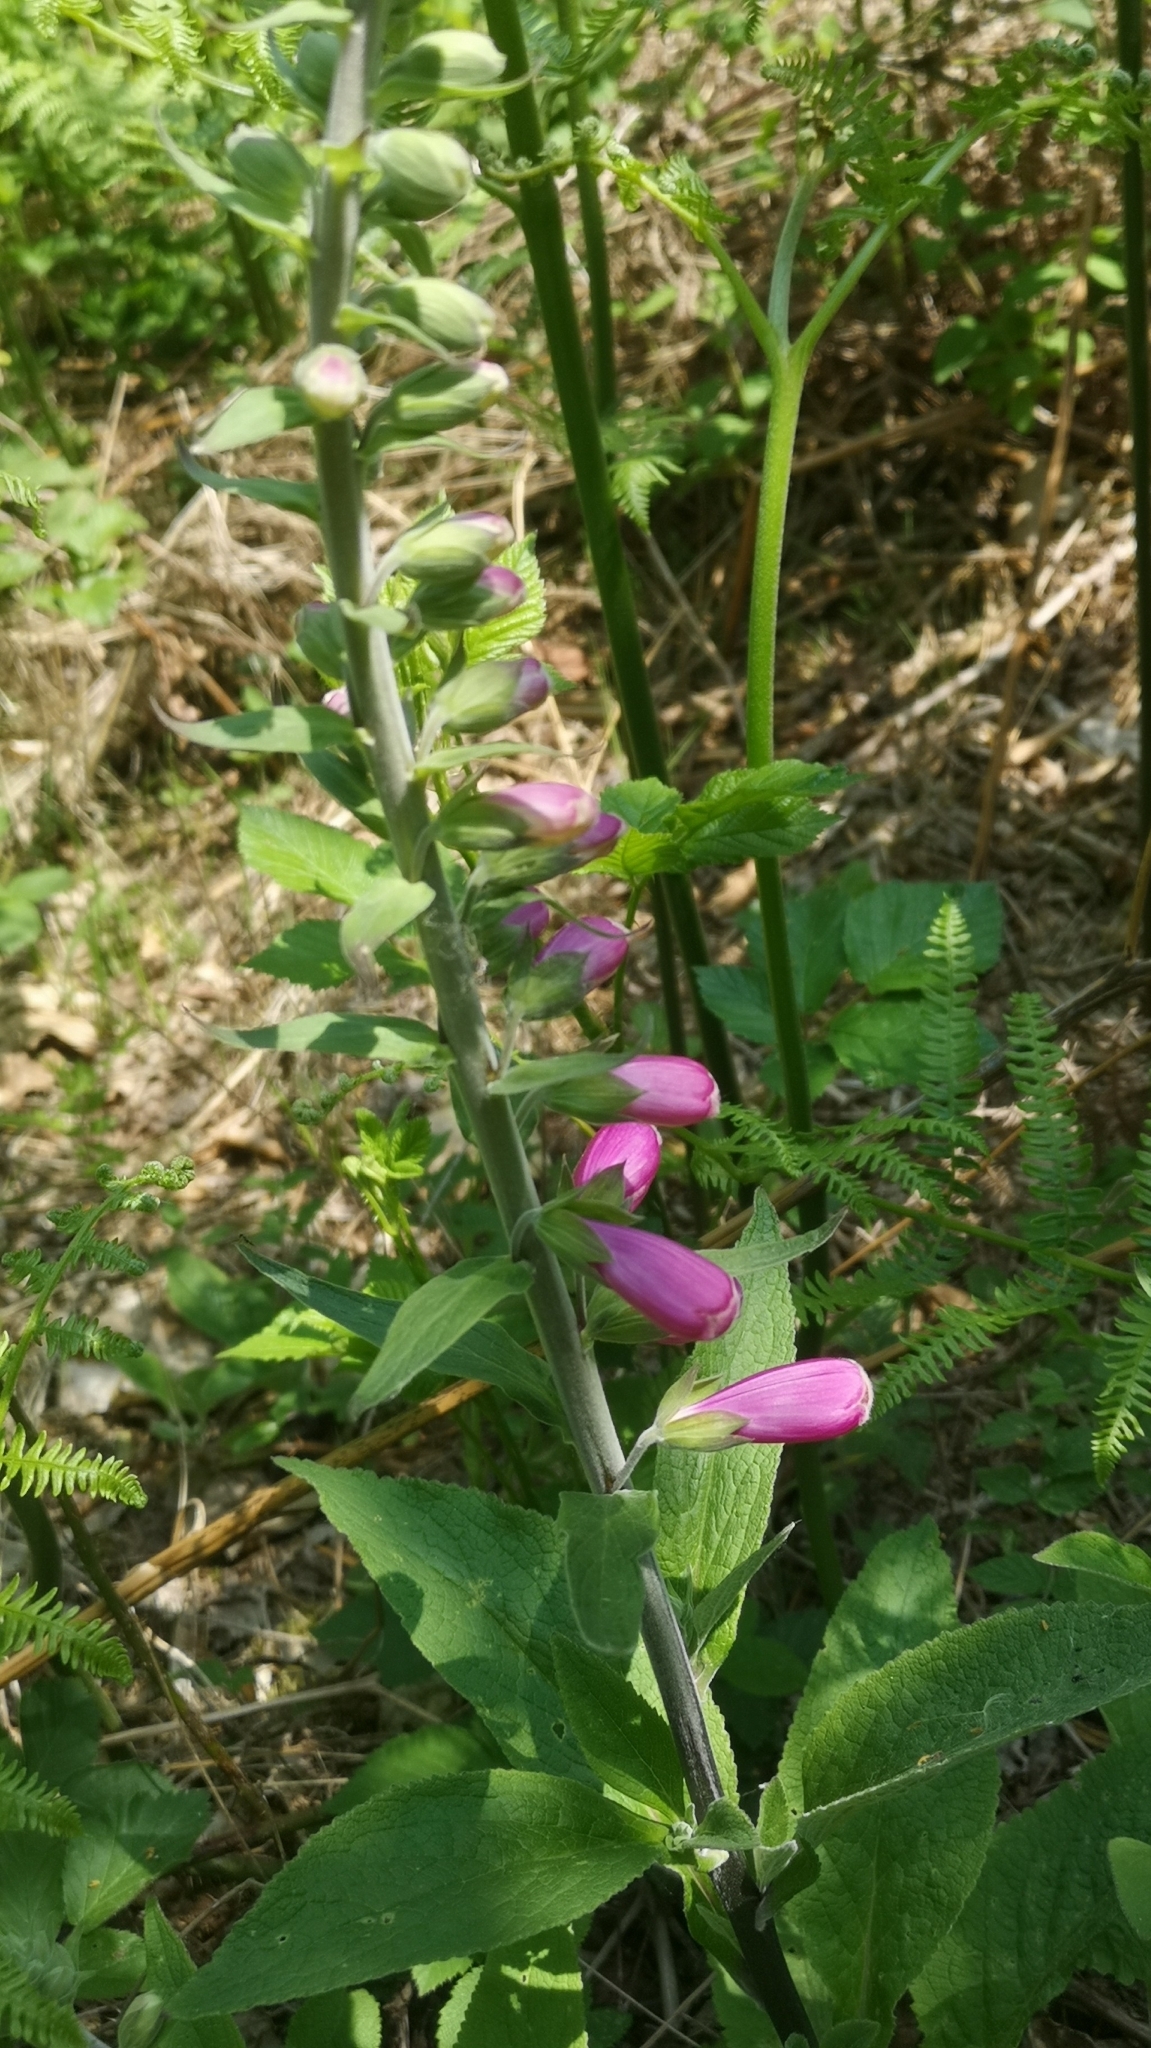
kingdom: Plantae
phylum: Tracheophyta
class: Magnoliopsida
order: Lamiales
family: Plantaginaceae
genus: Digitalis
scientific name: Digitalis purpurea
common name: Foxglove
